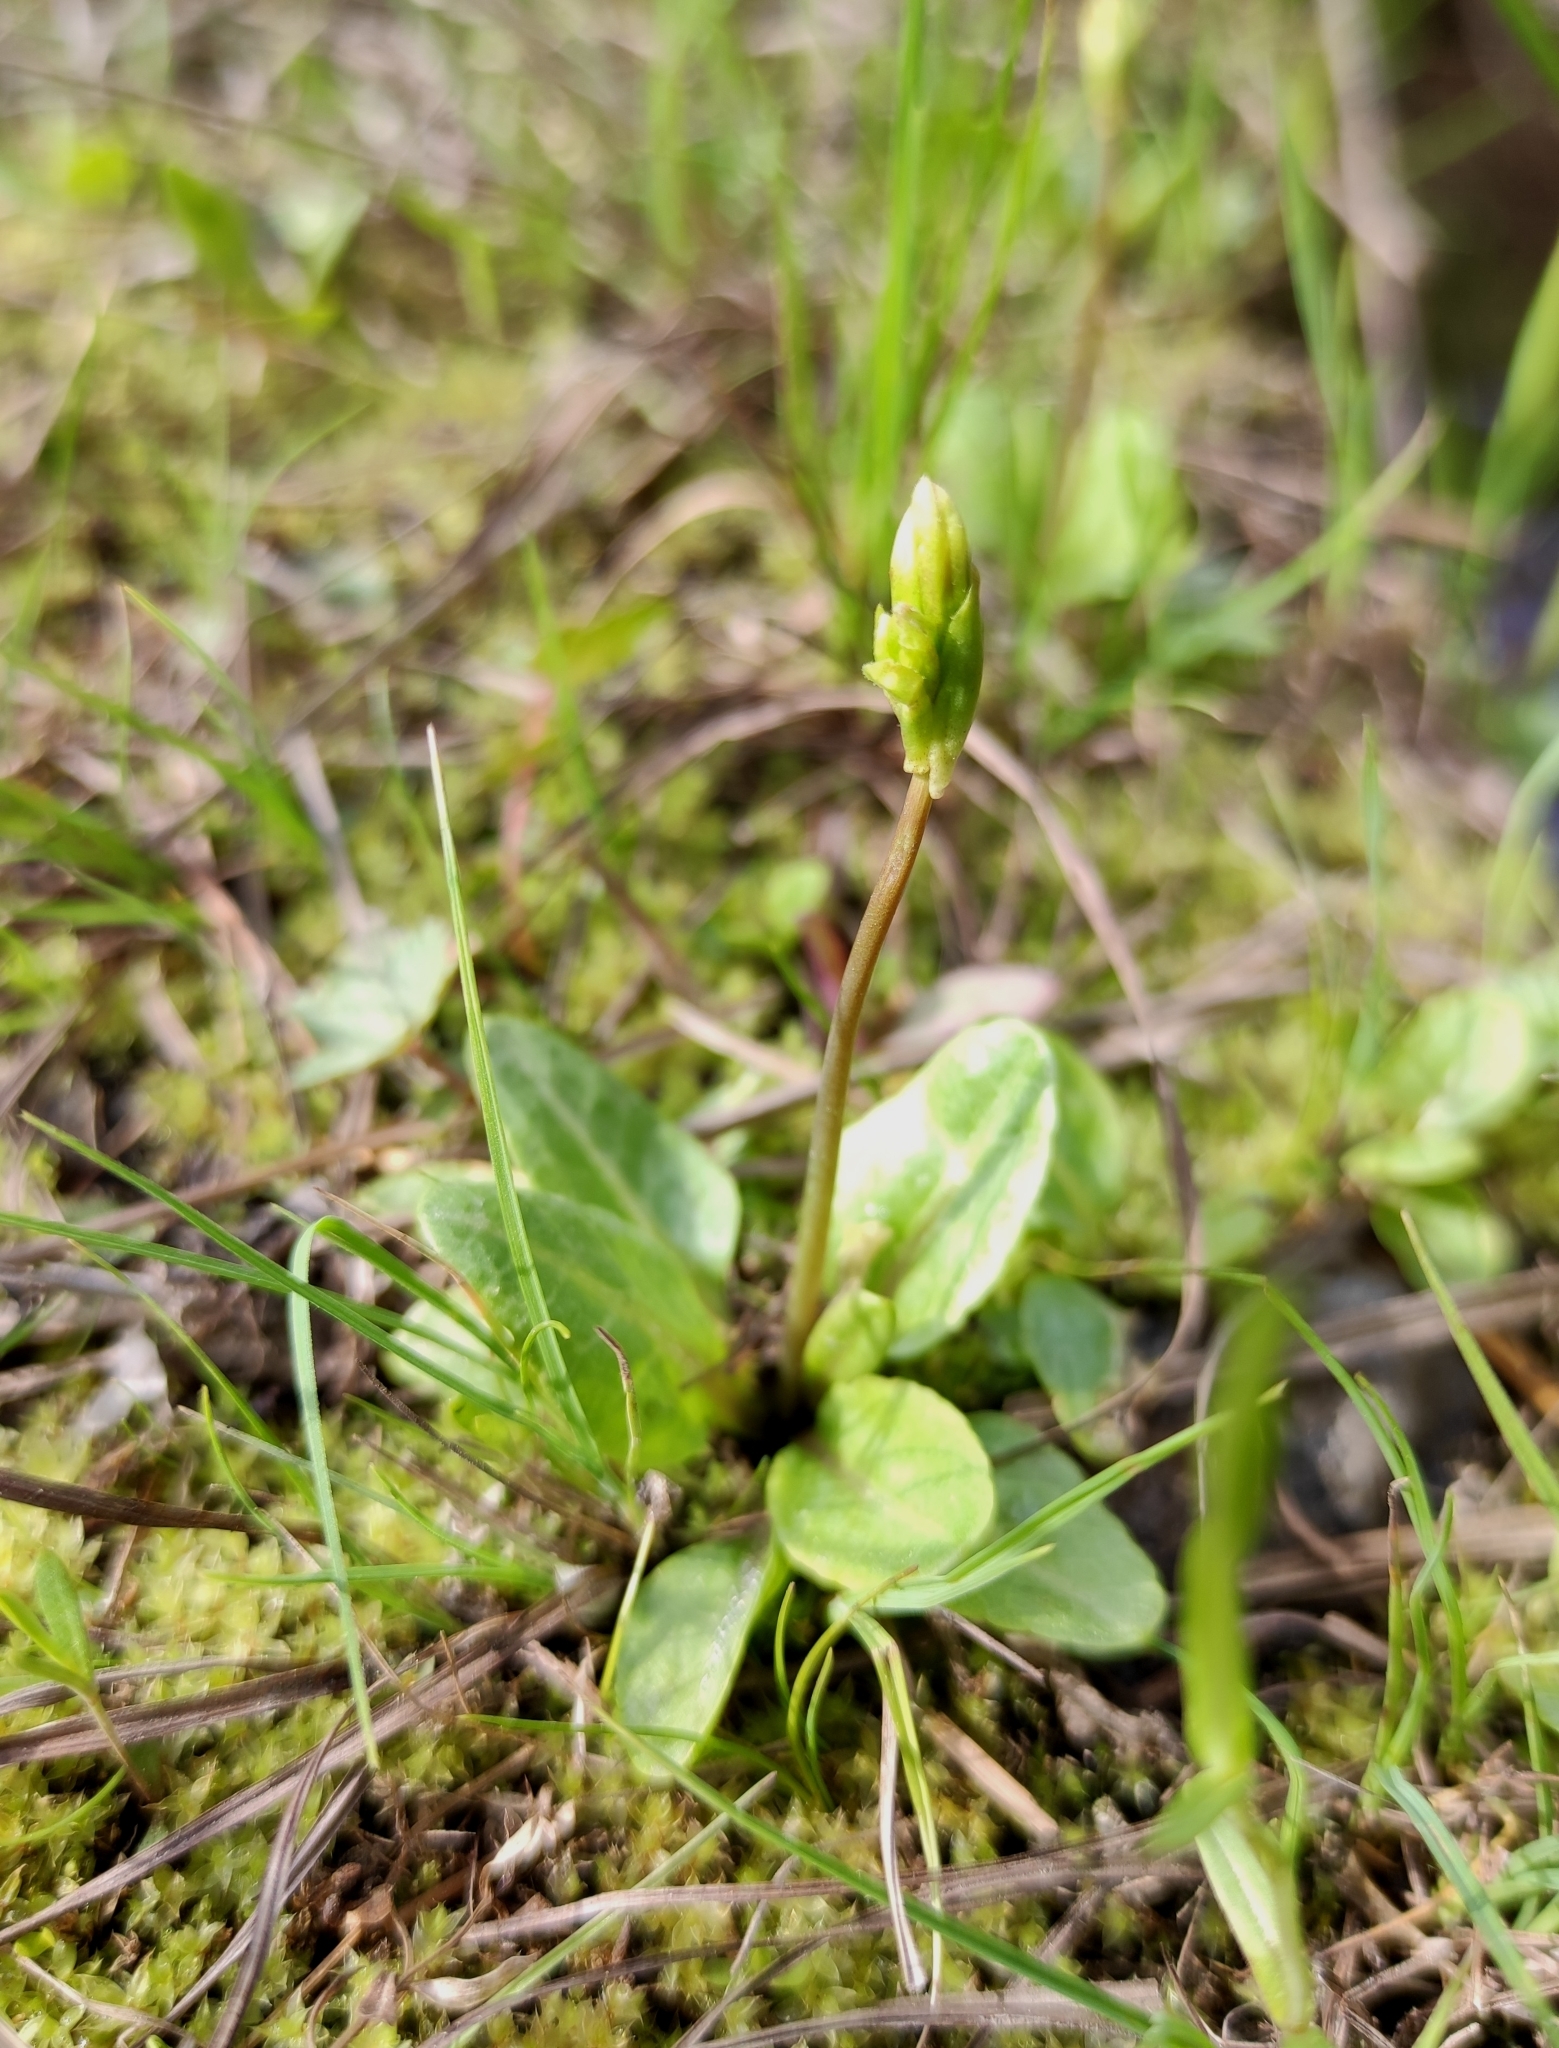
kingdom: Plantae
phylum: Tracheophyta
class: Magnoliopsida
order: Ericales
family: Primulaceae
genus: Primula
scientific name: Primula nutans
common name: Siberian primrose
